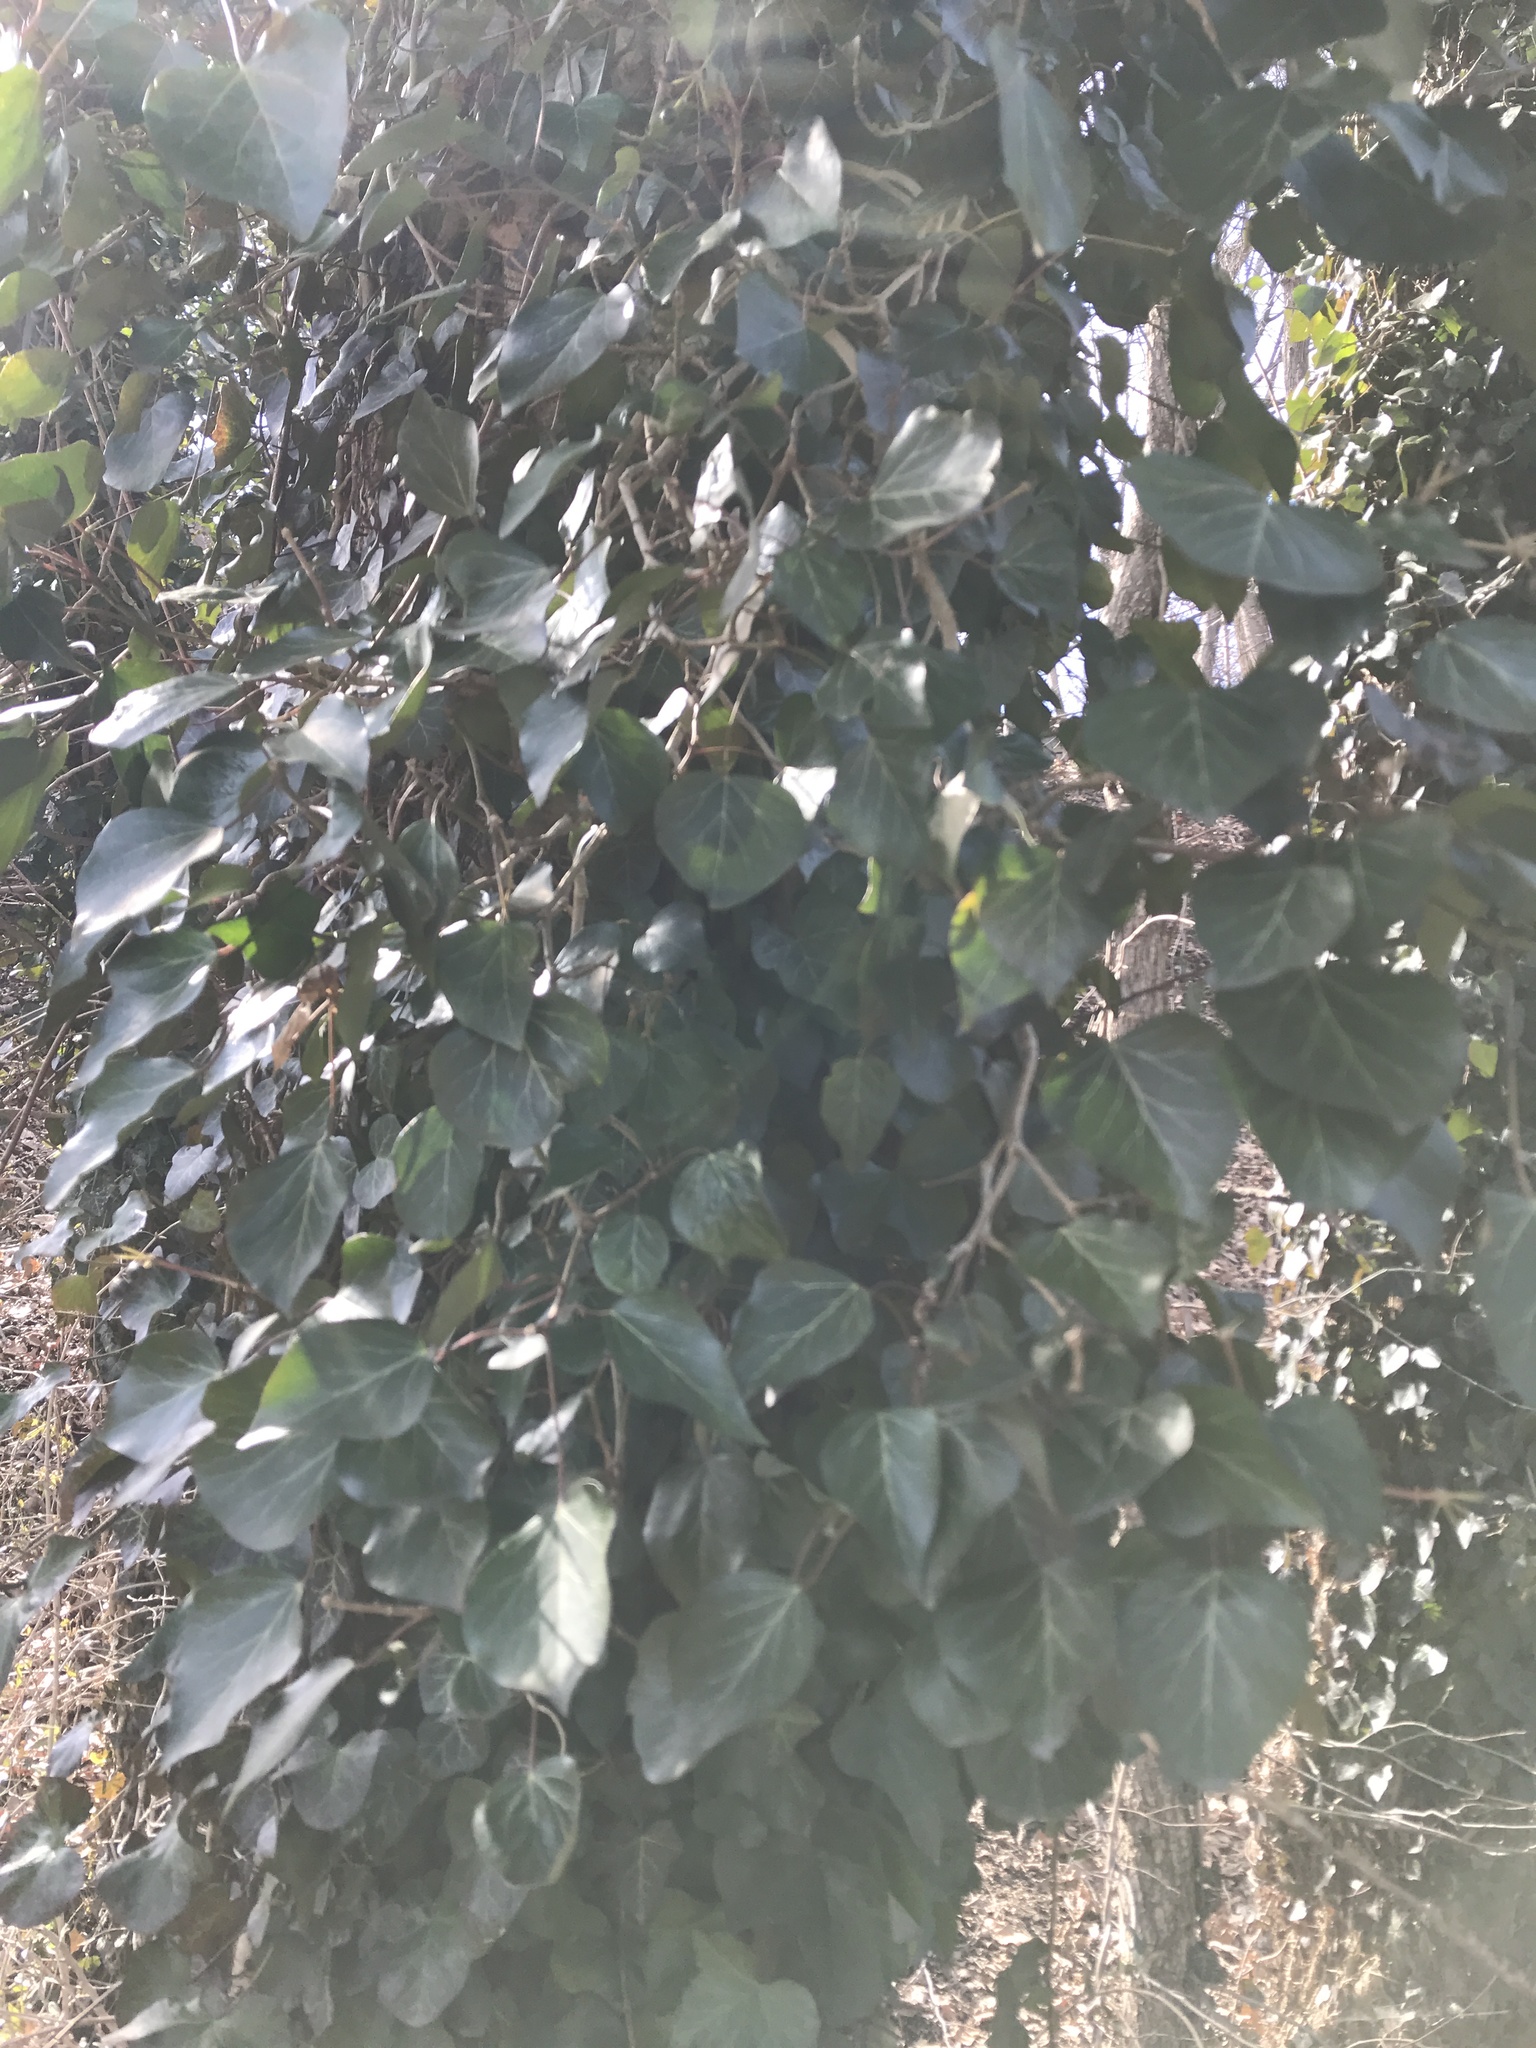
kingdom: Plantae
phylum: Tracheophyta
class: Magnoliopsida
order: Apiales
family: Araliaceae
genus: Hedera
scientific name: Hedera helix
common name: Ivy
